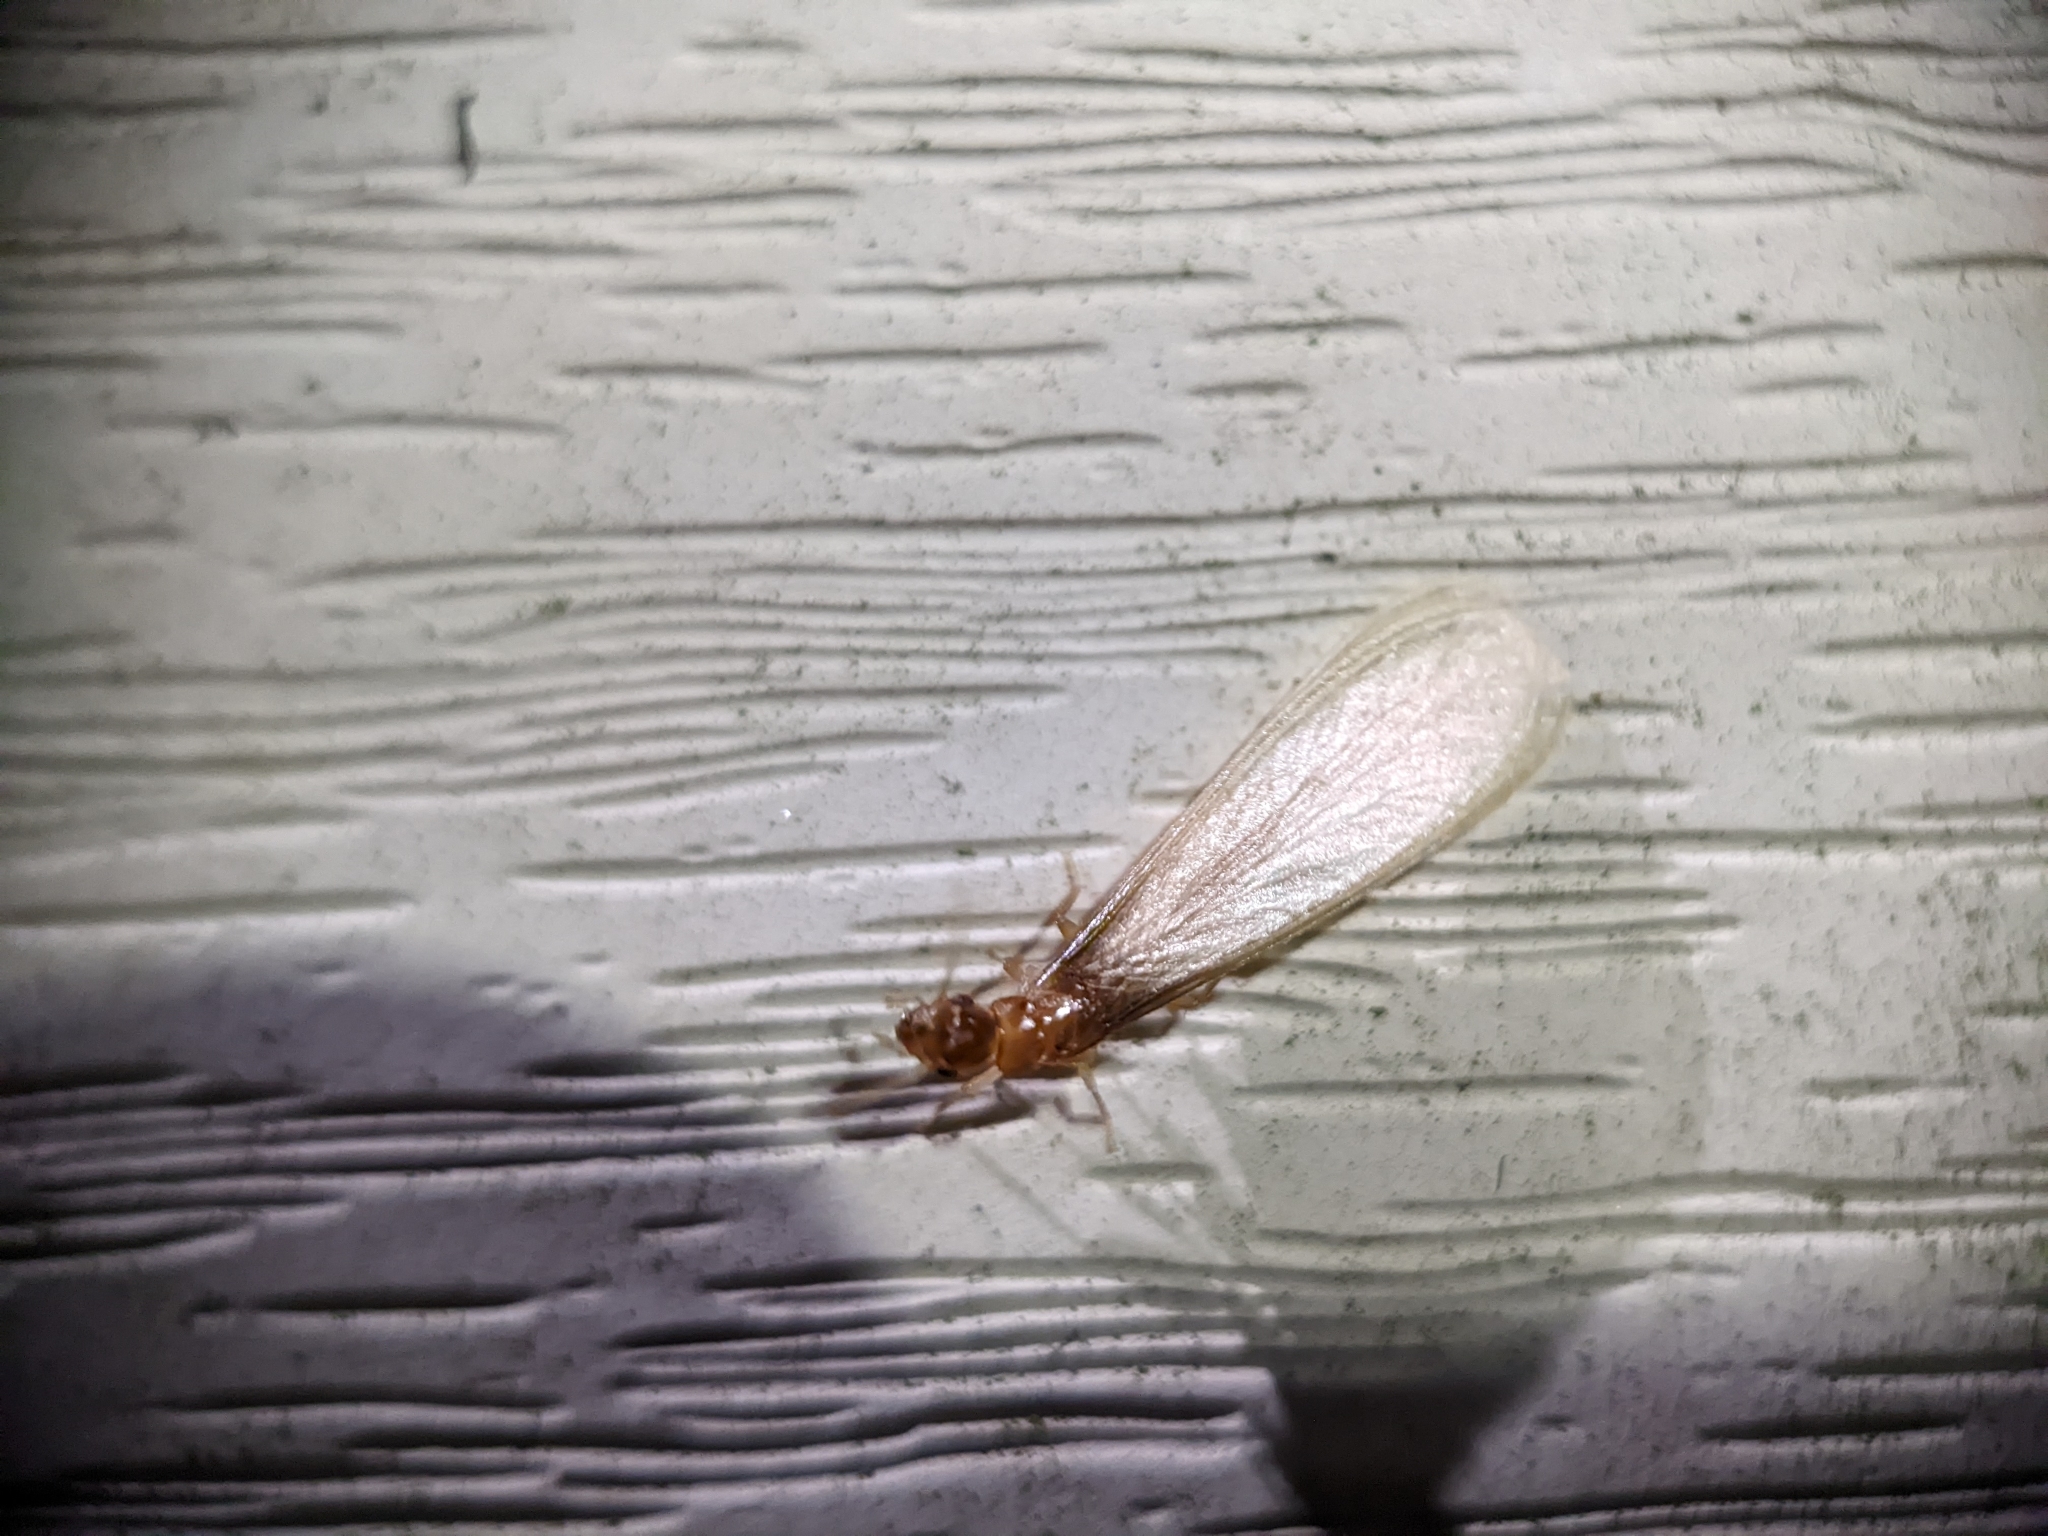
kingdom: Animalia
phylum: Arthropoda
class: Insecta
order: Blattodea
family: Rhinotermitidae
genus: Coptotermes
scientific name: Coptotermes formosanus
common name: Formosan termite
